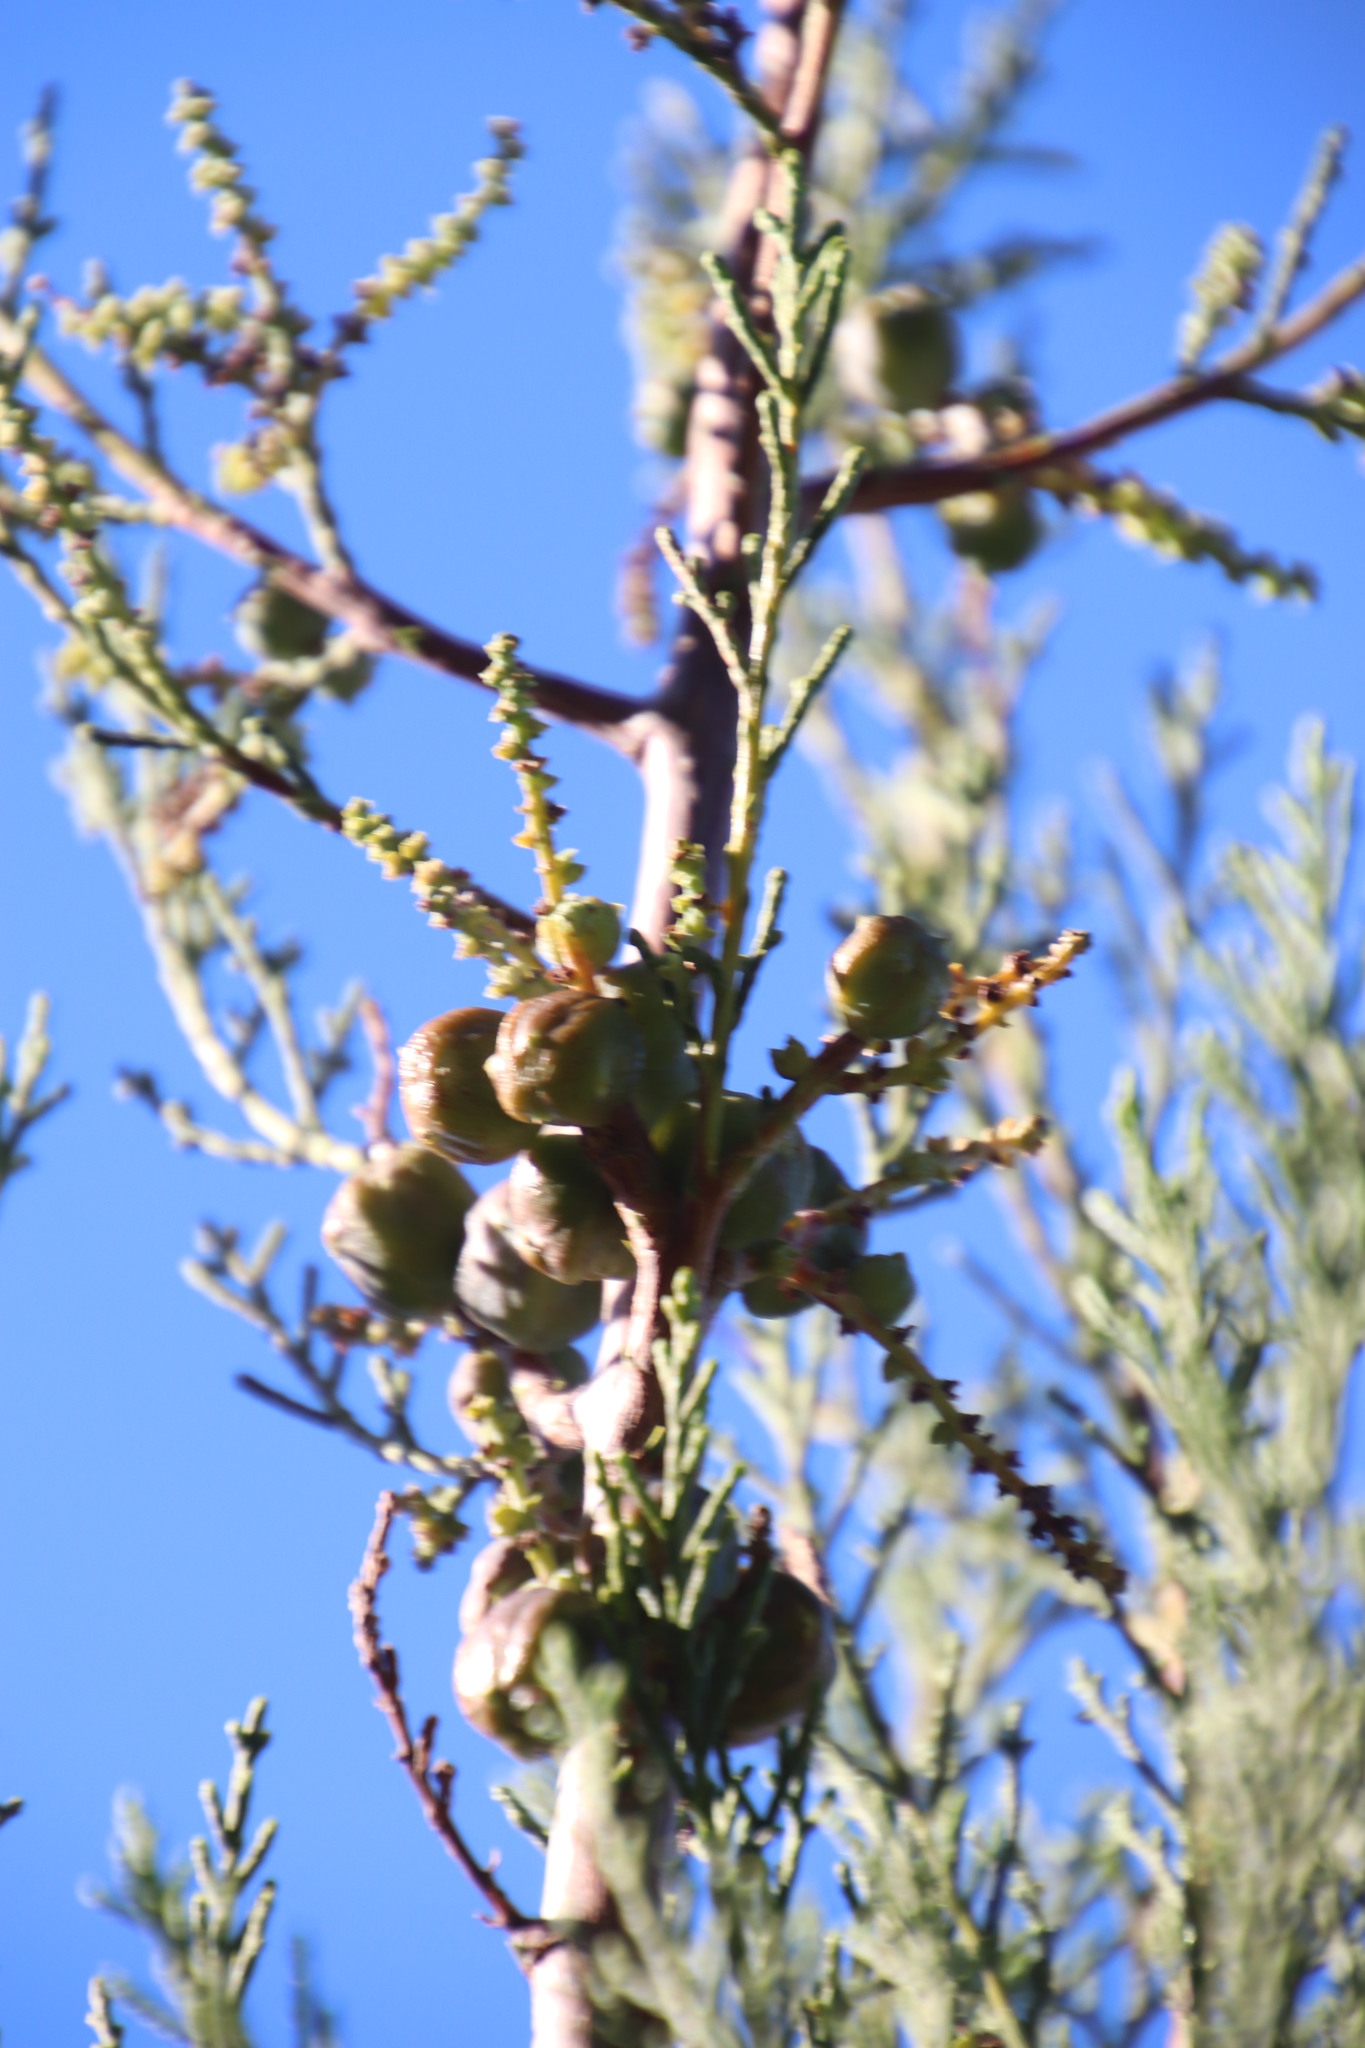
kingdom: Plantae
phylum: Tracheophyta
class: Pinopsida
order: Pinales
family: Cupressaceae
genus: Widdringtonia
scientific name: Widdringtonia nodiflora
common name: Cape cypress
